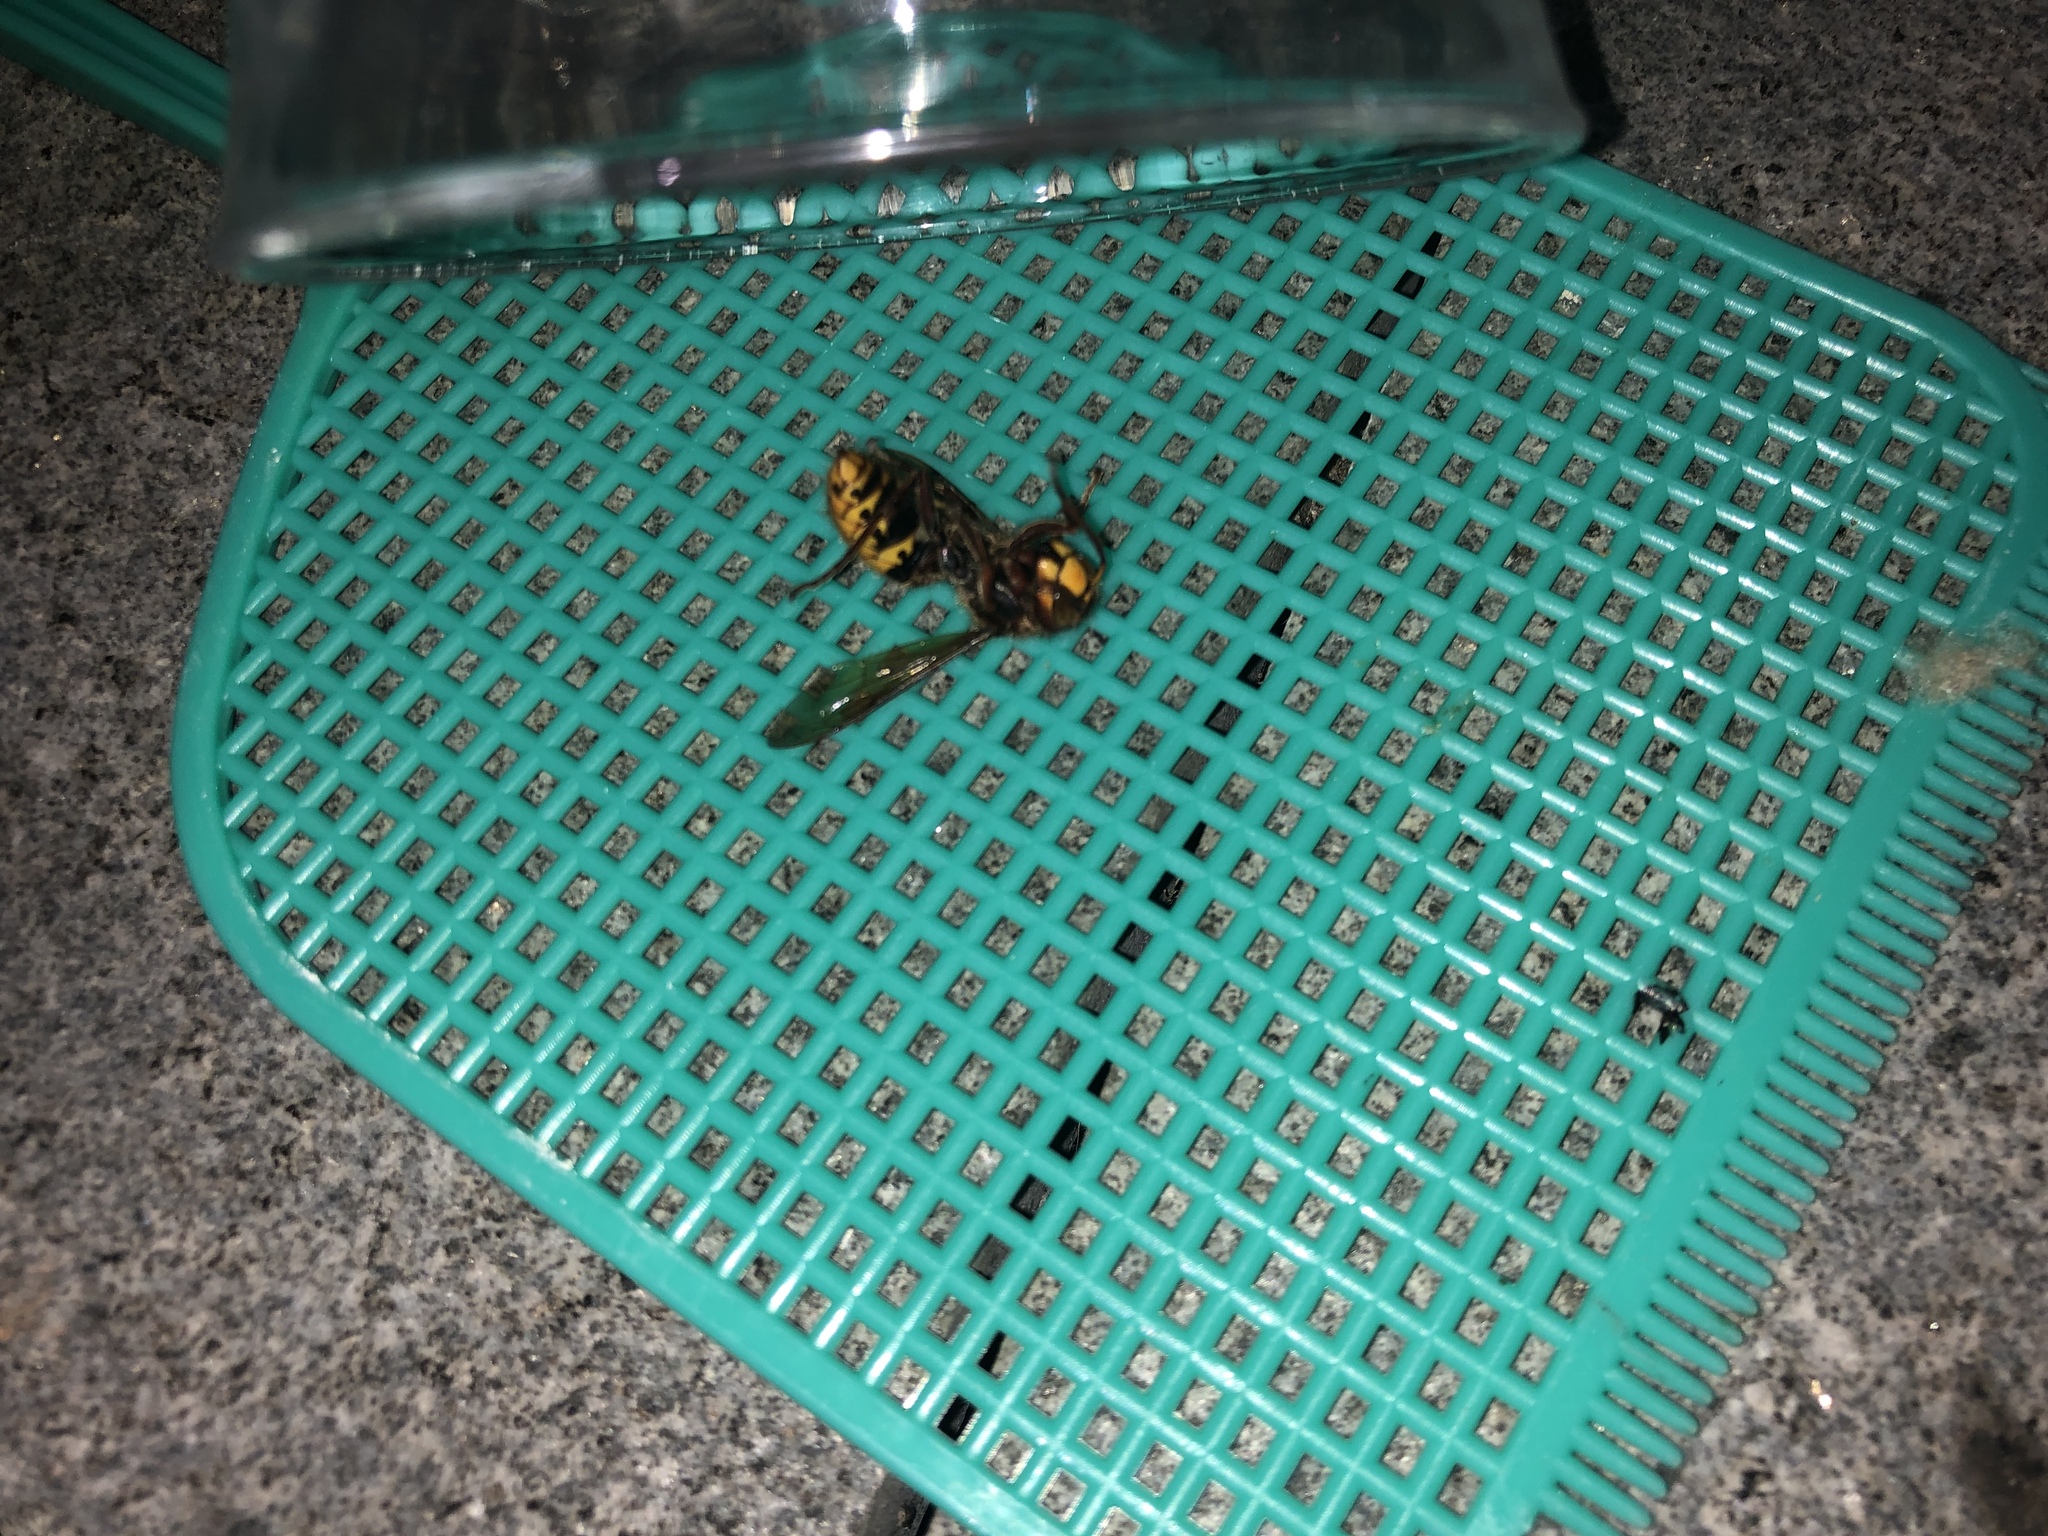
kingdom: Animalia
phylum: Arthropoda
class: Insecta
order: Hymenoptera
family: Vespidae
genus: Vespa
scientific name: Vespa crabro
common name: Hornet
